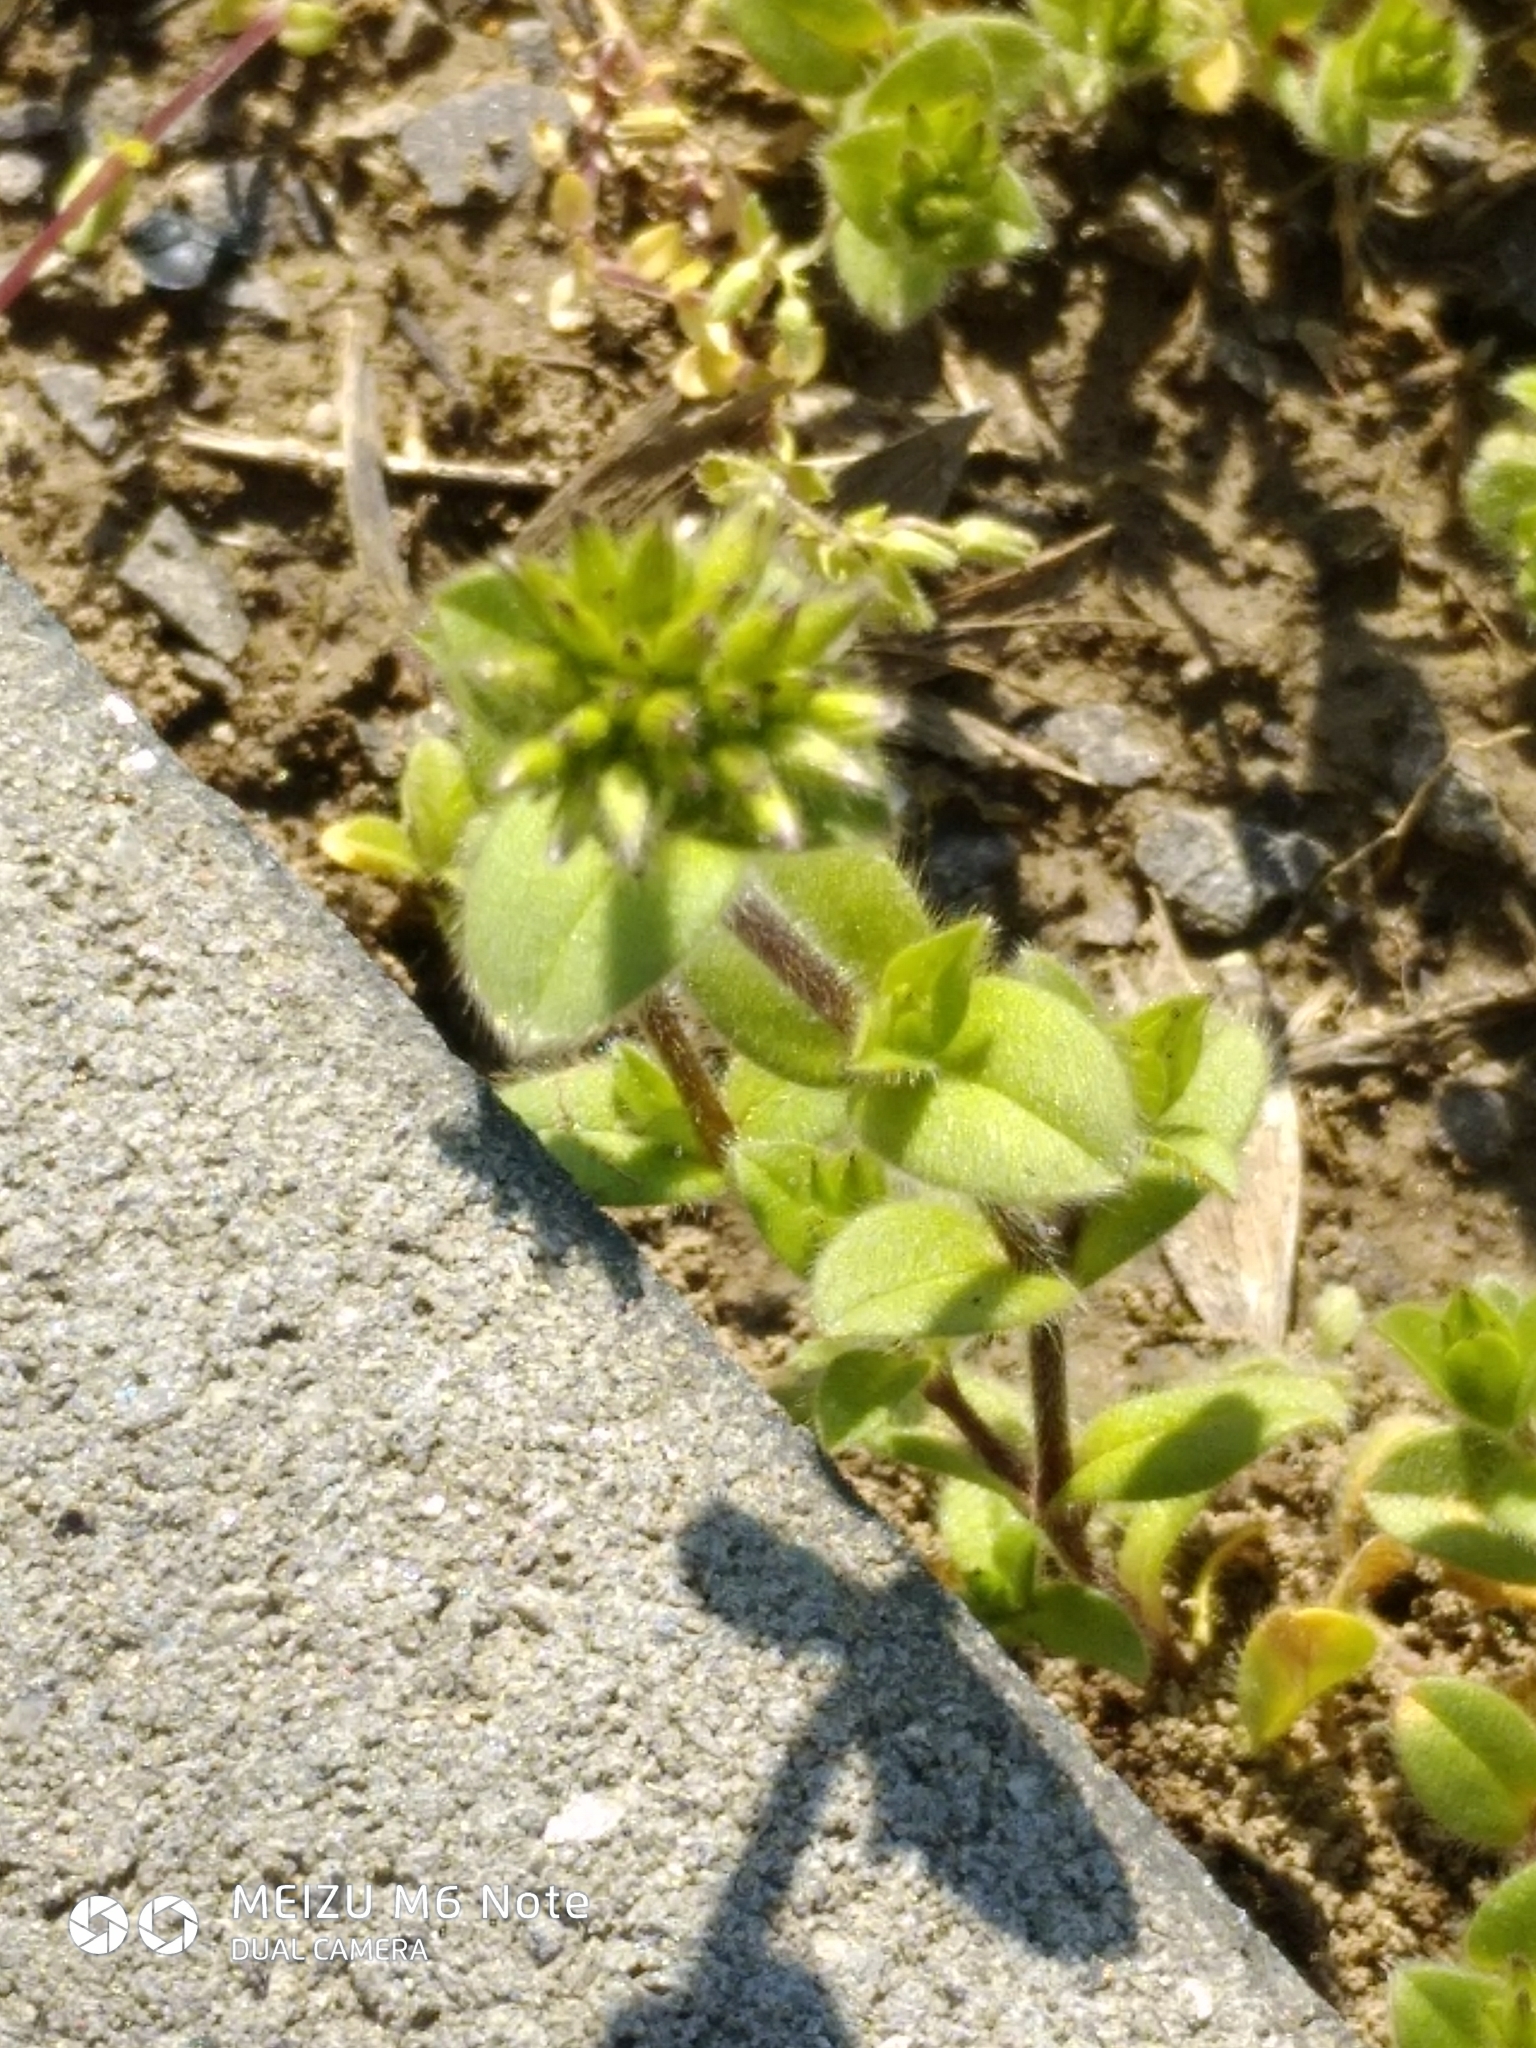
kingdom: Plantae
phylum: Tracheophyta
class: Magnoliopsida
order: Caryophyllales
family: Caryophyllaceae
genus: Cerastium
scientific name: Cerastium brachypetalum
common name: Grey mouse-ear
